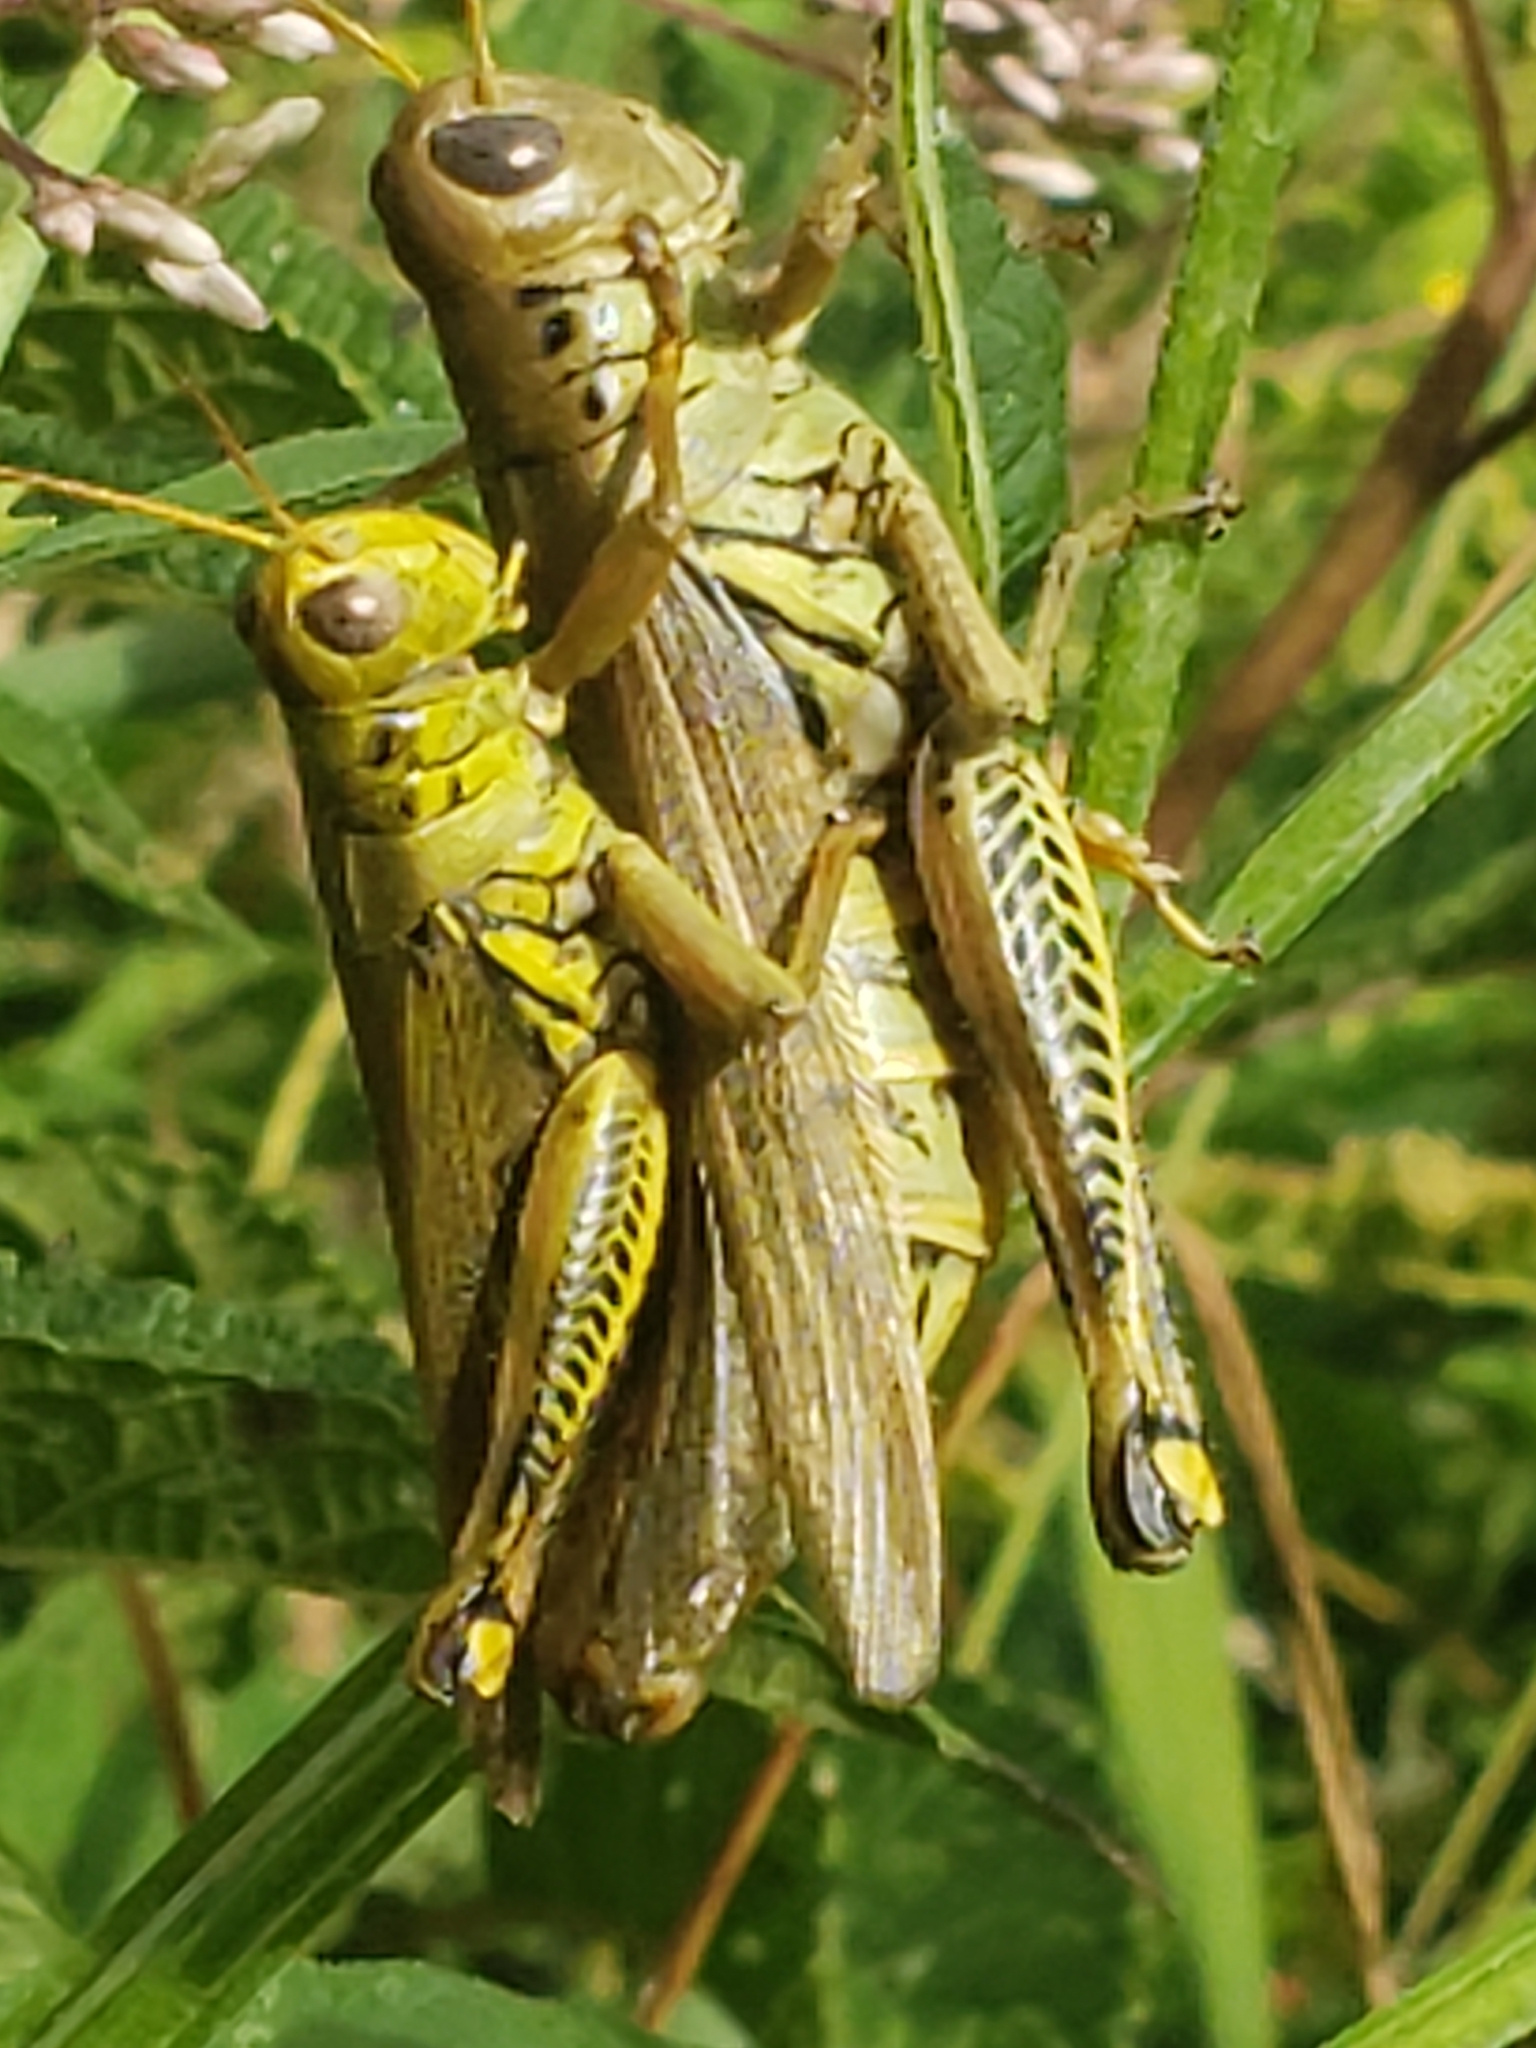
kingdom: Animalia
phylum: Arthropoda
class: Insecta
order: Orthoptera
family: Acrididae
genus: Melanoplus
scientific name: Melanoplus differentialis
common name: Differential grasshopper
